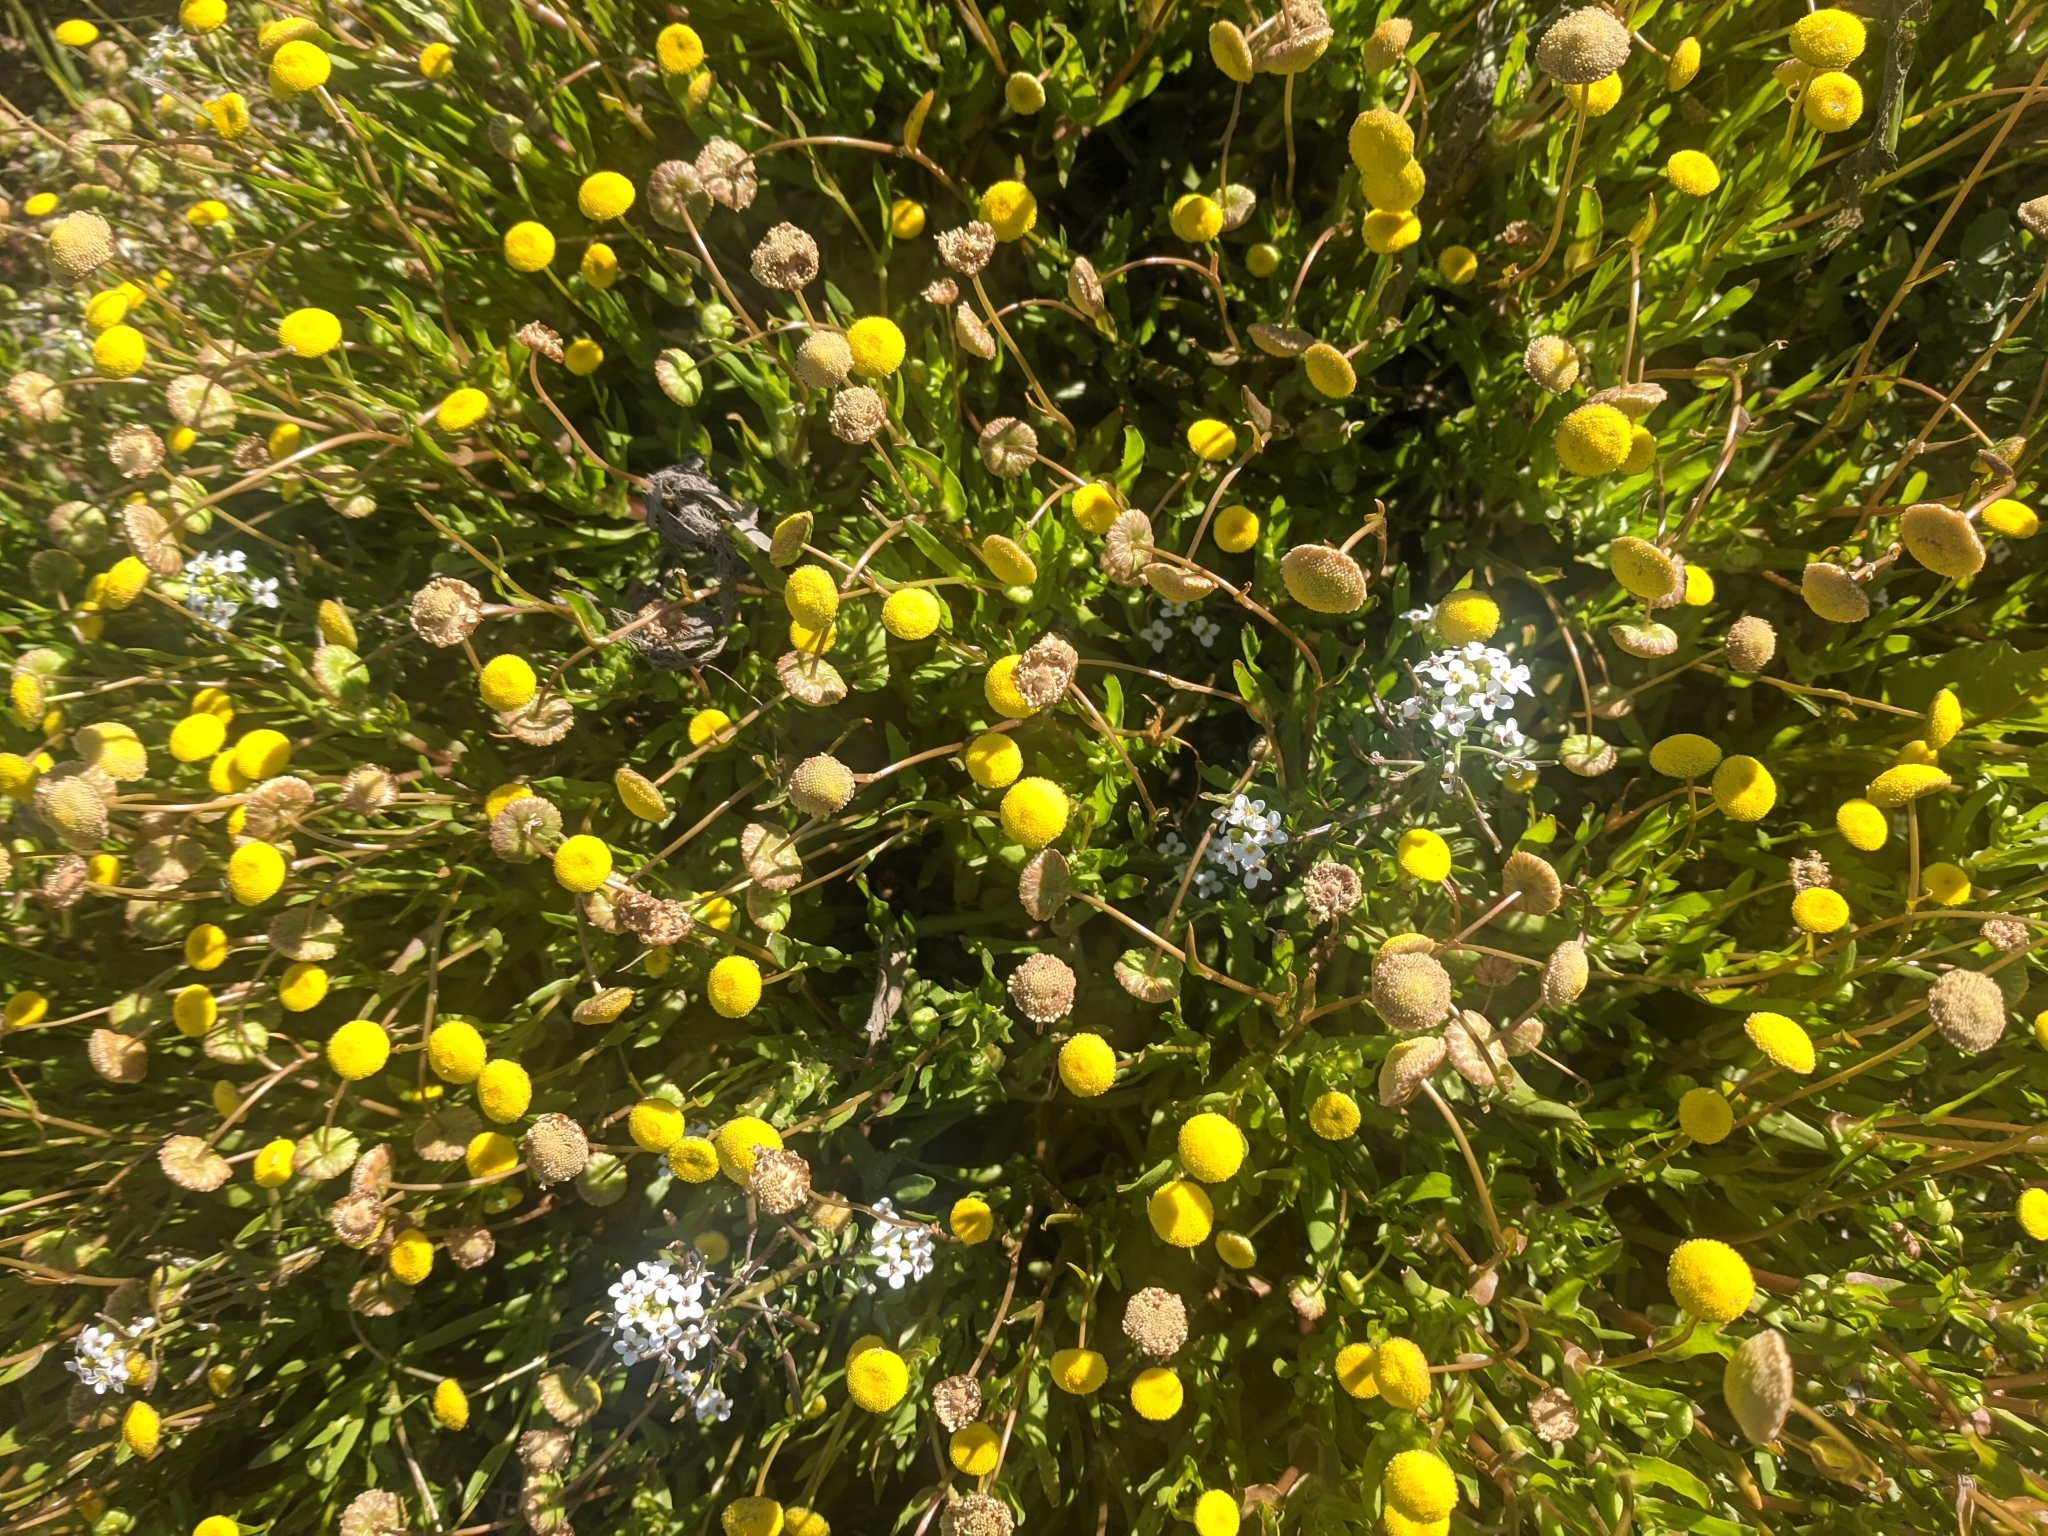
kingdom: Plantae
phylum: Tracheophyta
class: Magnoliopsida
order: Asterales
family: Asteraceae
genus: Cotula
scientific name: Cotula coronopifolia
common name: Buttonweed
